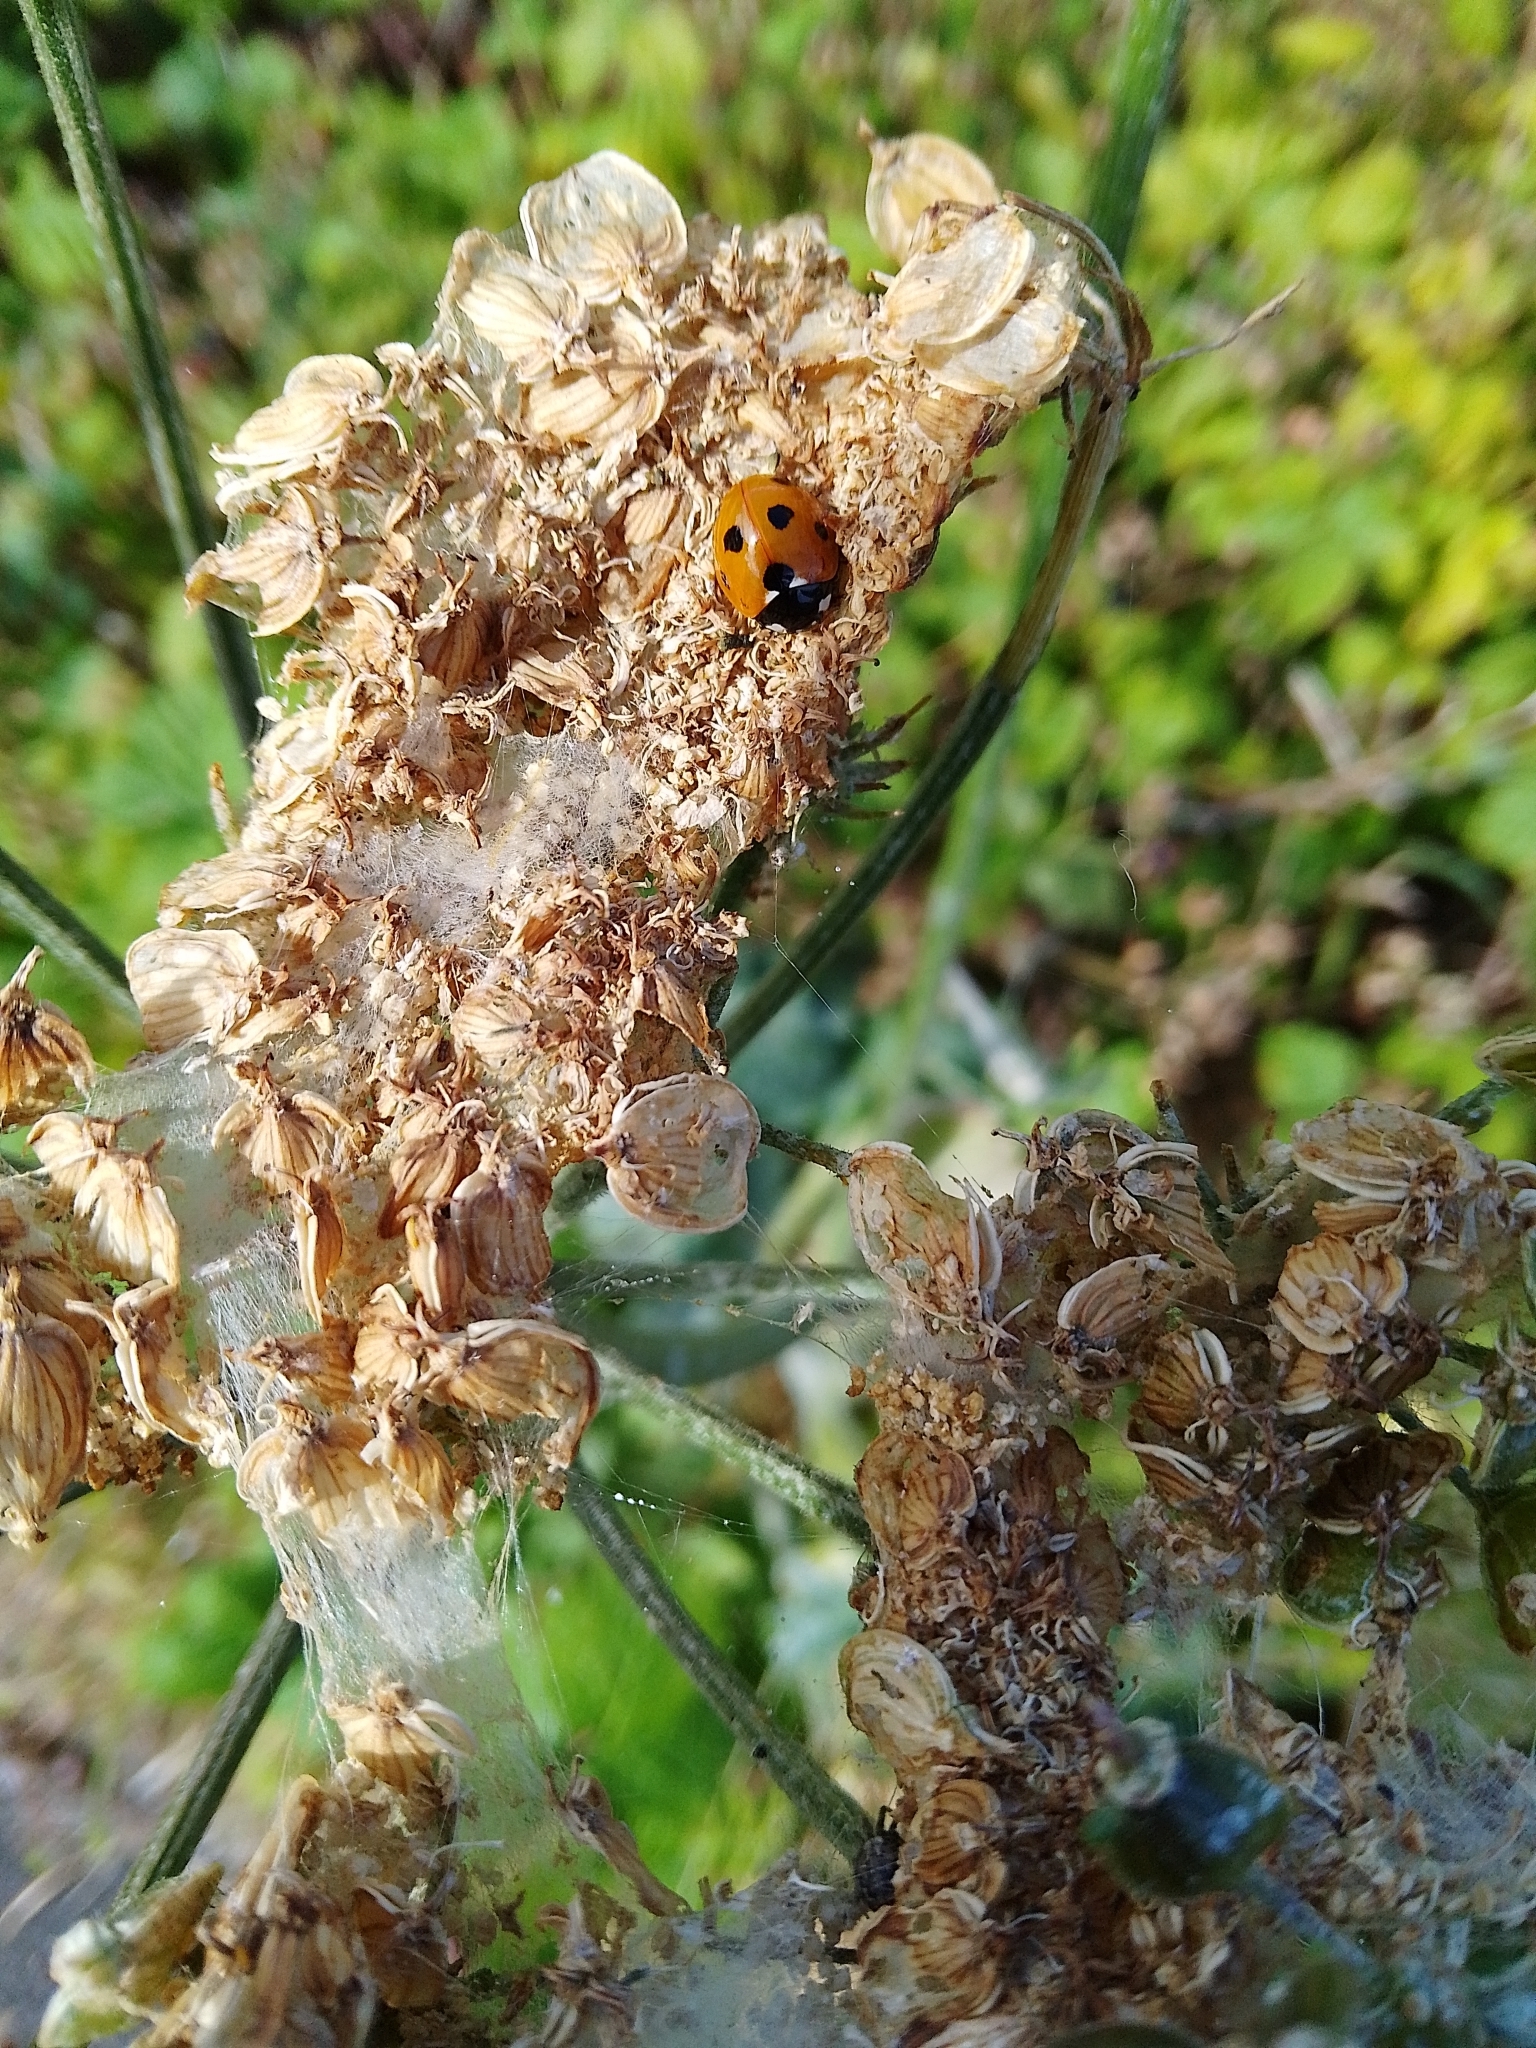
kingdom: Animalia
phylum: Arthropoda
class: Insecta
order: Coleoptera
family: Coccinellidae
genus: Coccinella
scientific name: Coccinella septempunctata
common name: Sevenspotted lady beetle
